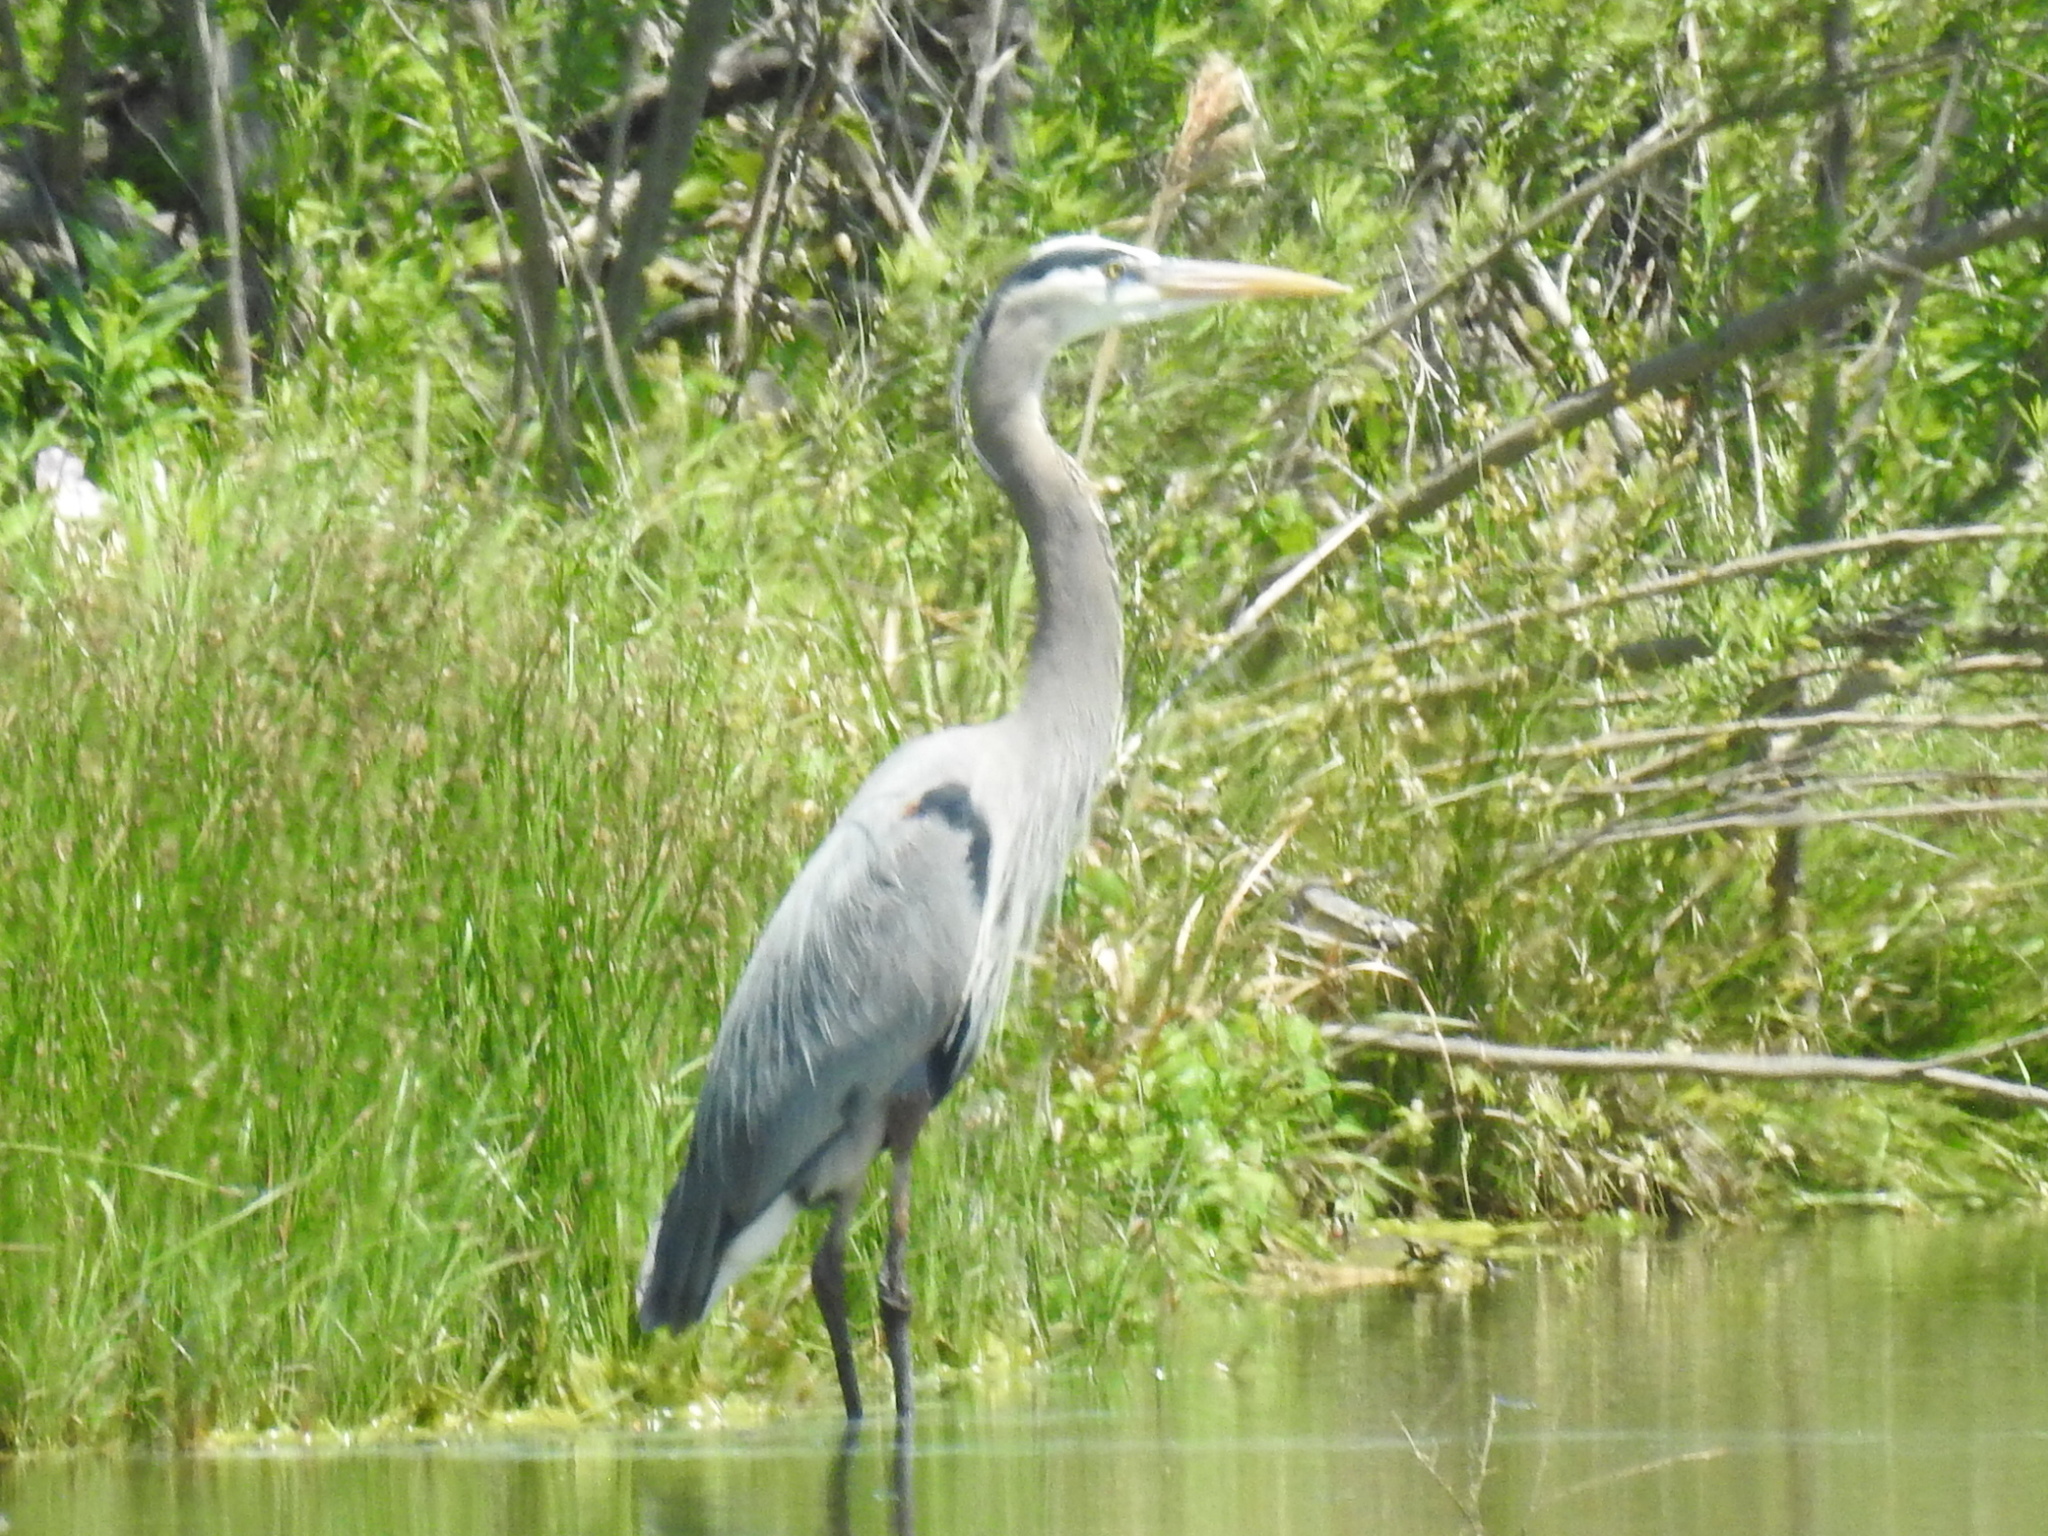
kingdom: Animalia
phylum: Chordata
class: Aves
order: Pelecaniformes
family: Ardeidae
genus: Ardea
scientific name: Ardea herodias
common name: Great blue heron
